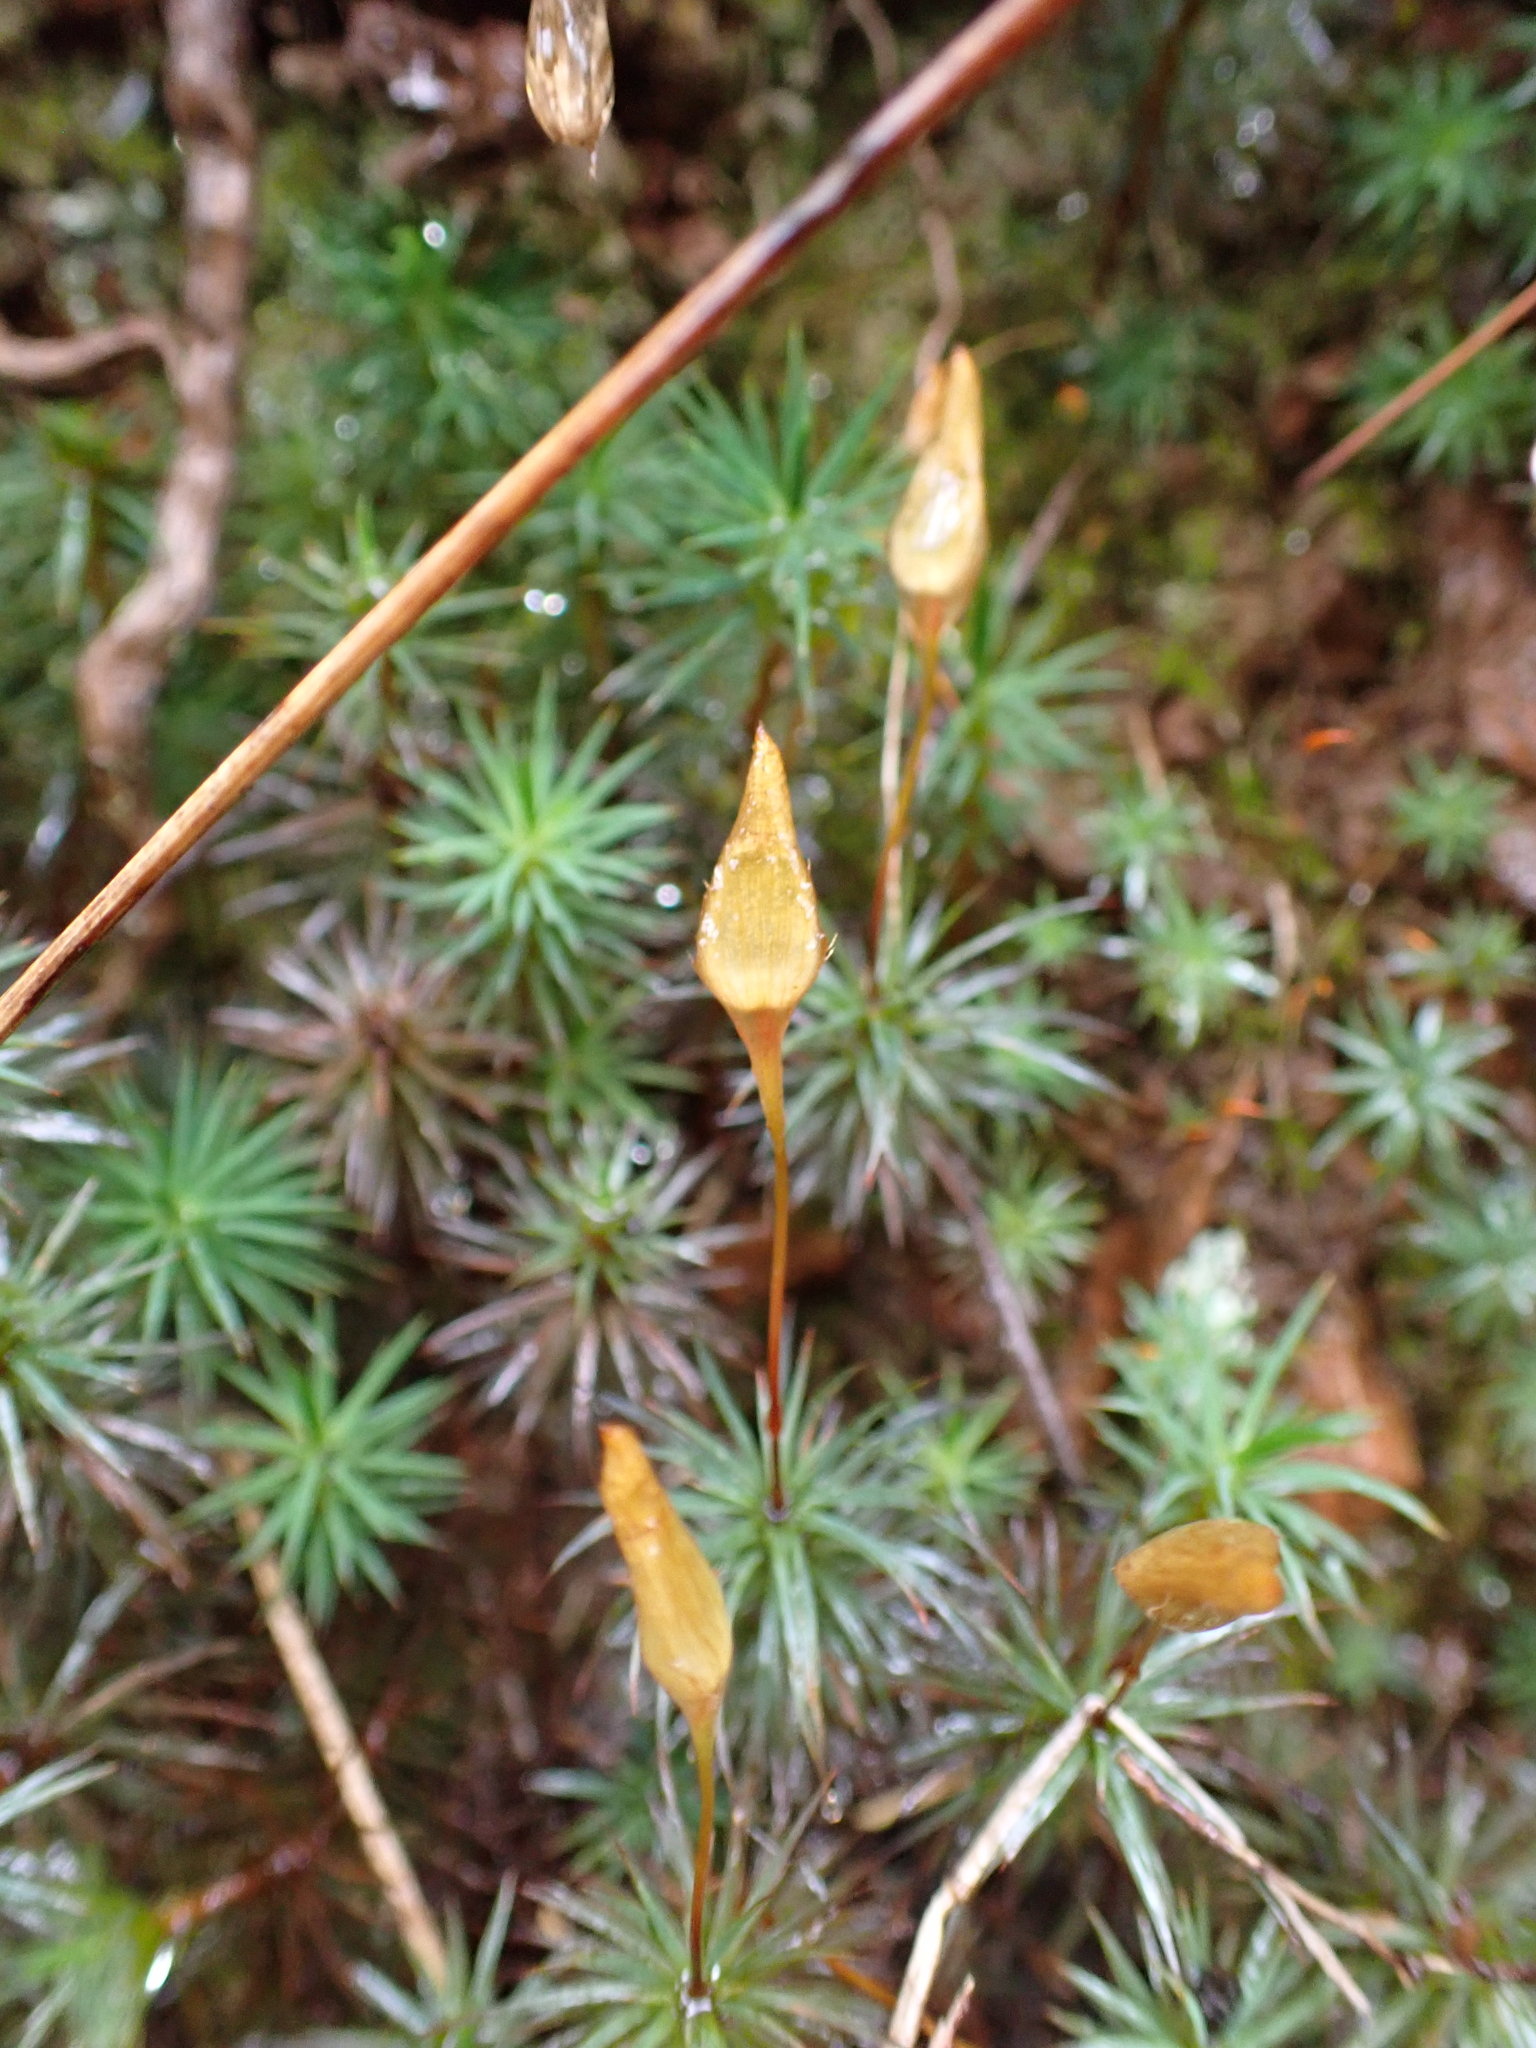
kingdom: Plantae
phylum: Bryophyta
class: Polytrichopsida
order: Polytrichales
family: Polytrichaceae
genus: Dawsonia
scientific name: Dawsonia polytrichoides
